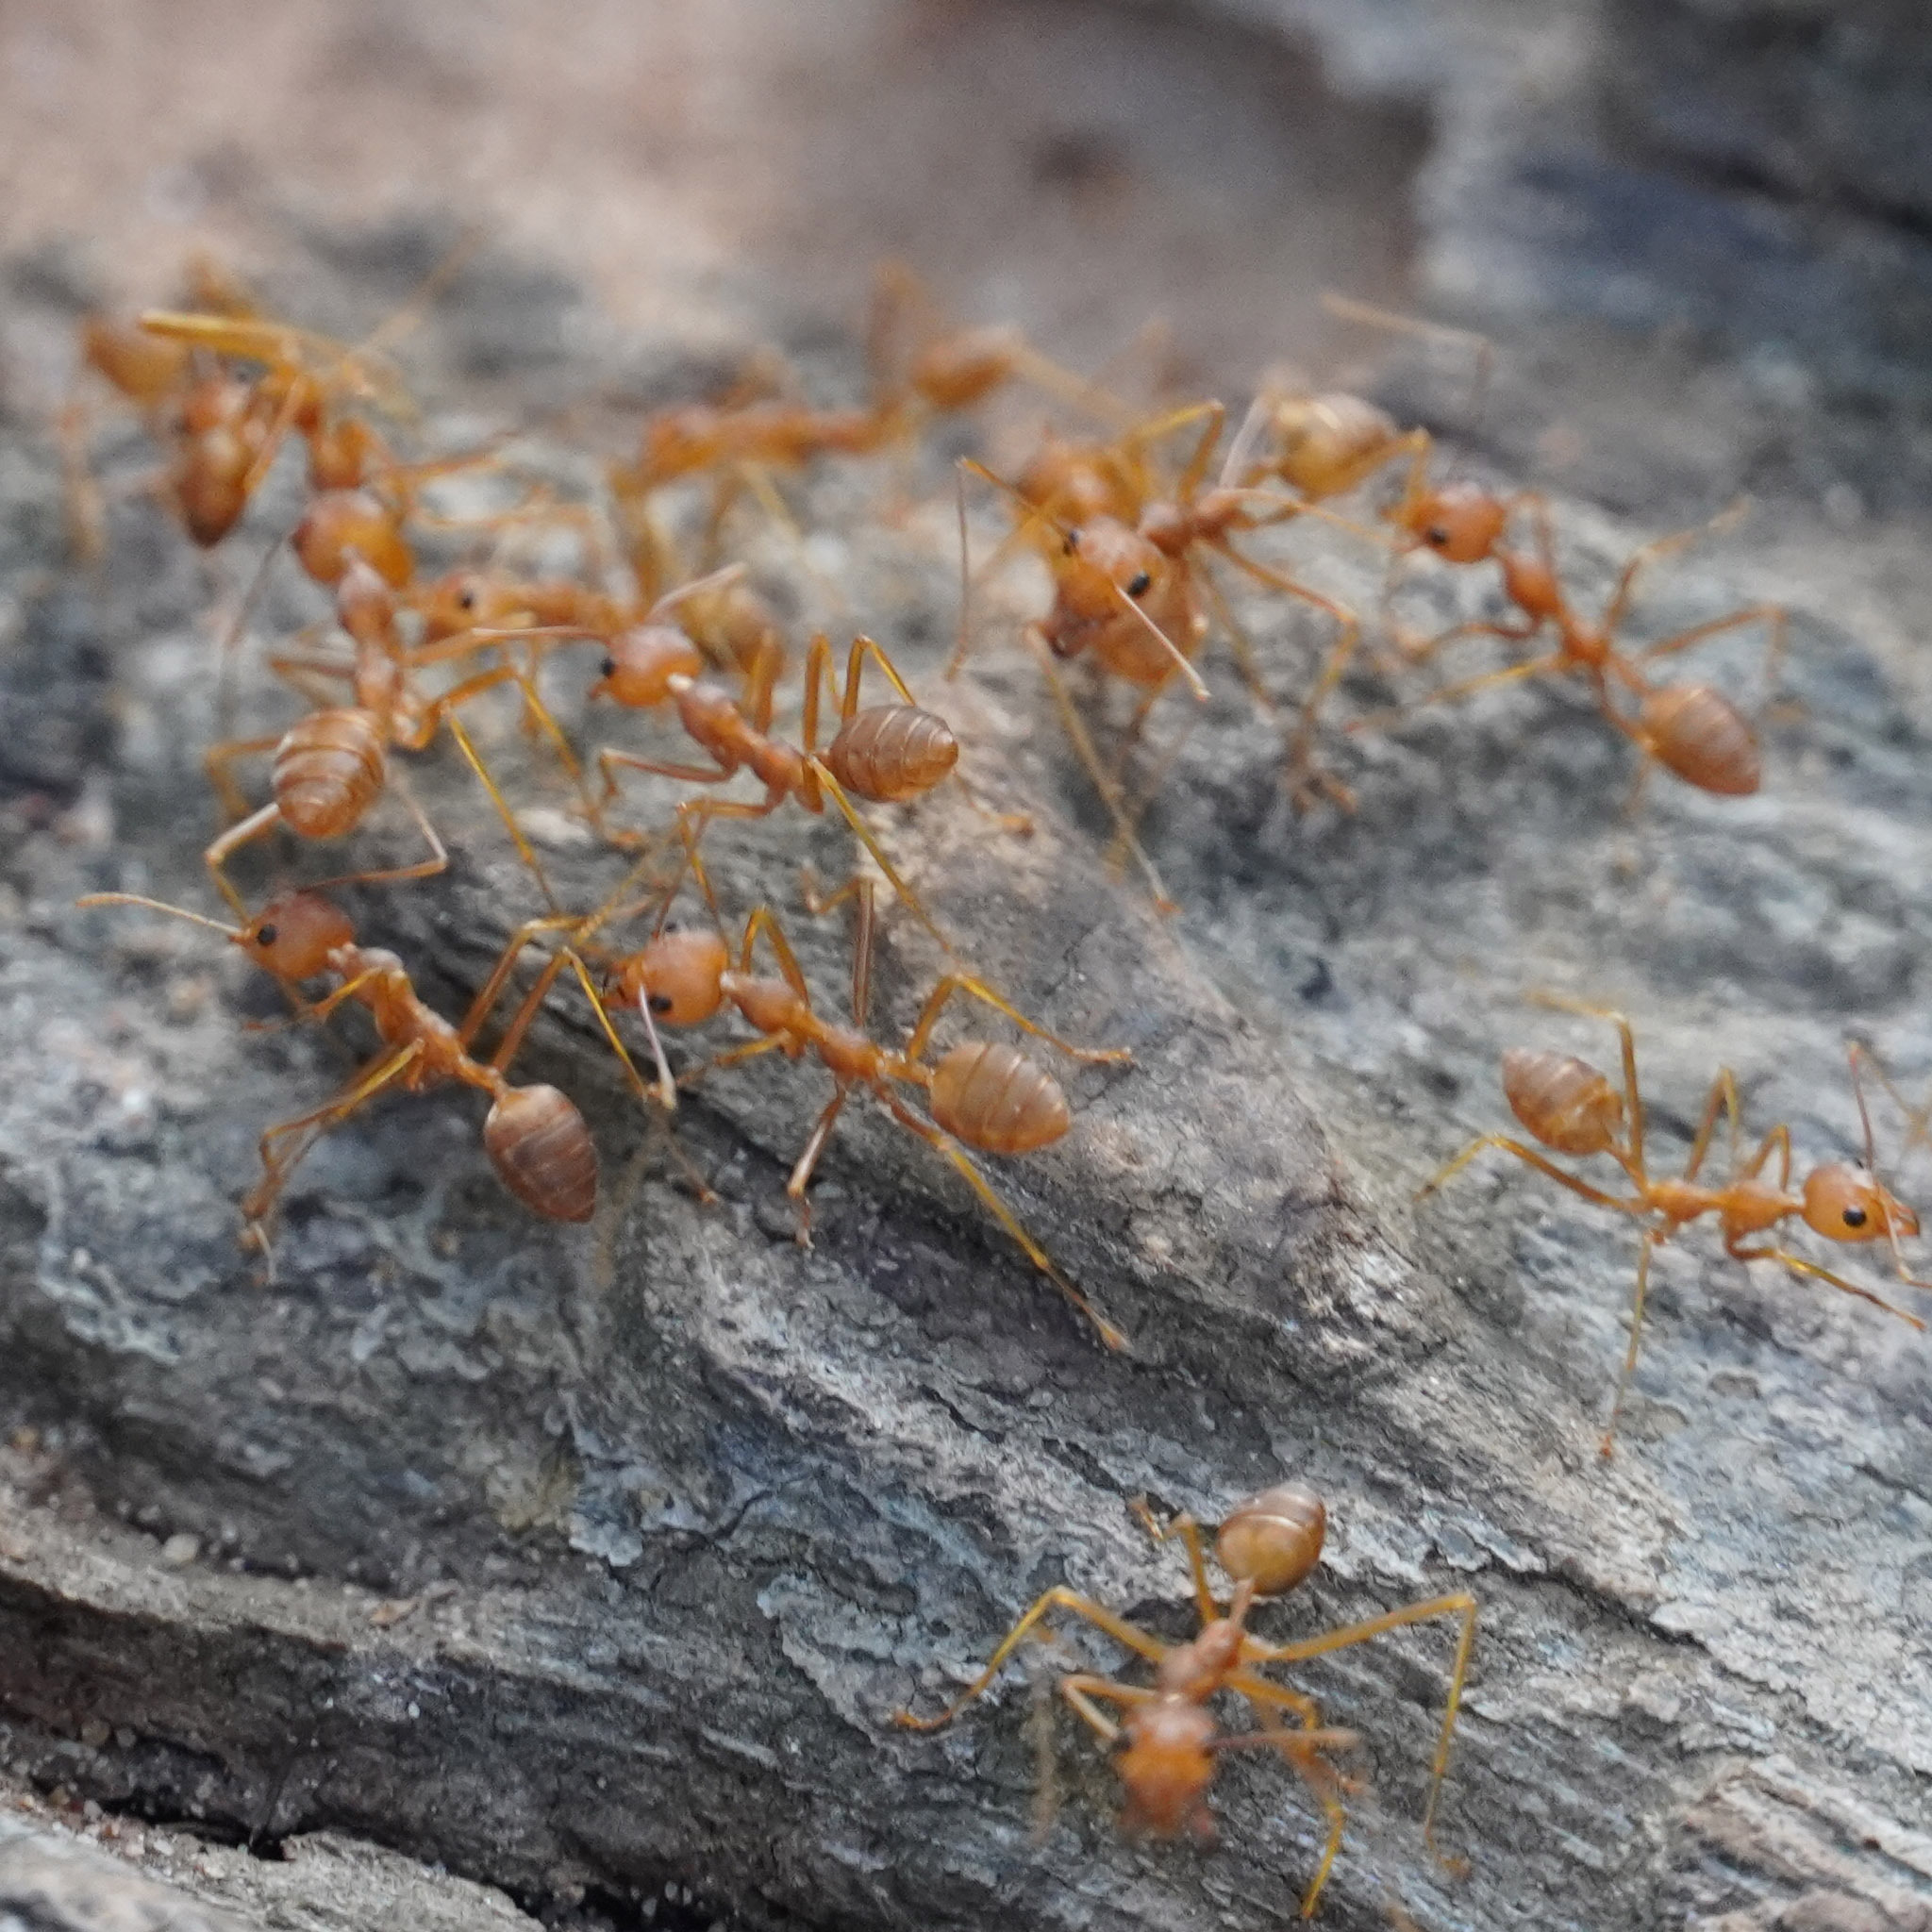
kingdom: Animalia
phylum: Arthropoda
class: Insecta
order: Hymenoptera
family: Formicidae
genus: Oecophylla
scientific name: Oecophylla smaragdina
